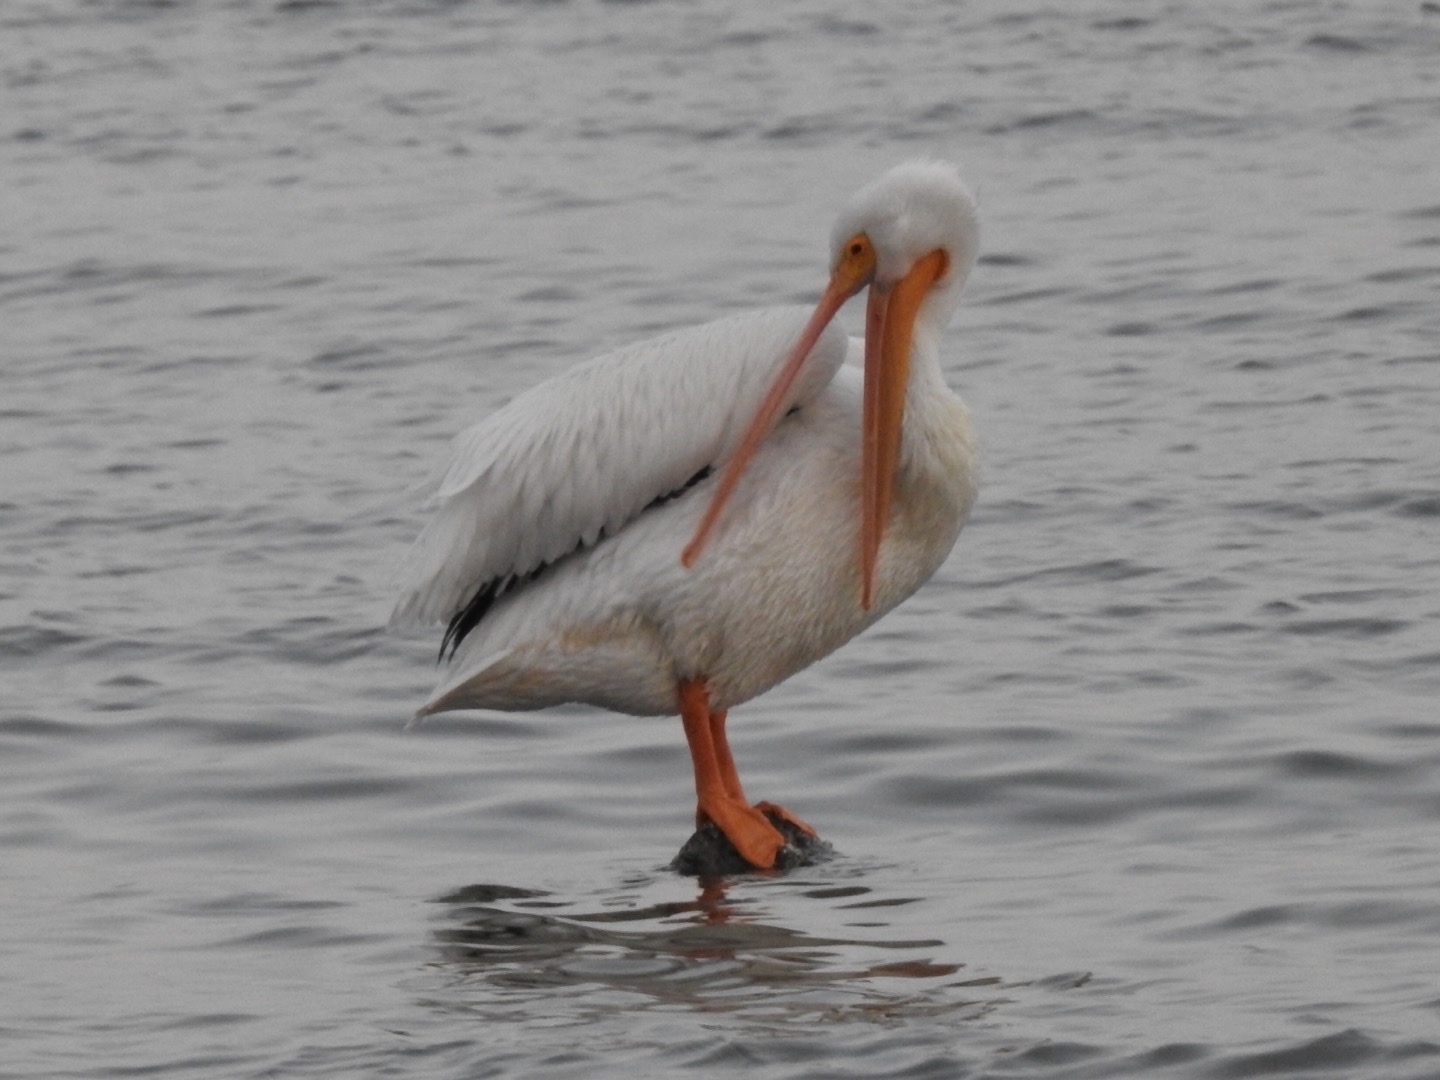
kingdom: Animalia
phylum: Chordata
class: Aves
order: Pelecaniformes
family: Pelecanidae
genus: Pelecanus
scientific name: Pelecanus erythrorhynchos
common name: American white pelican
